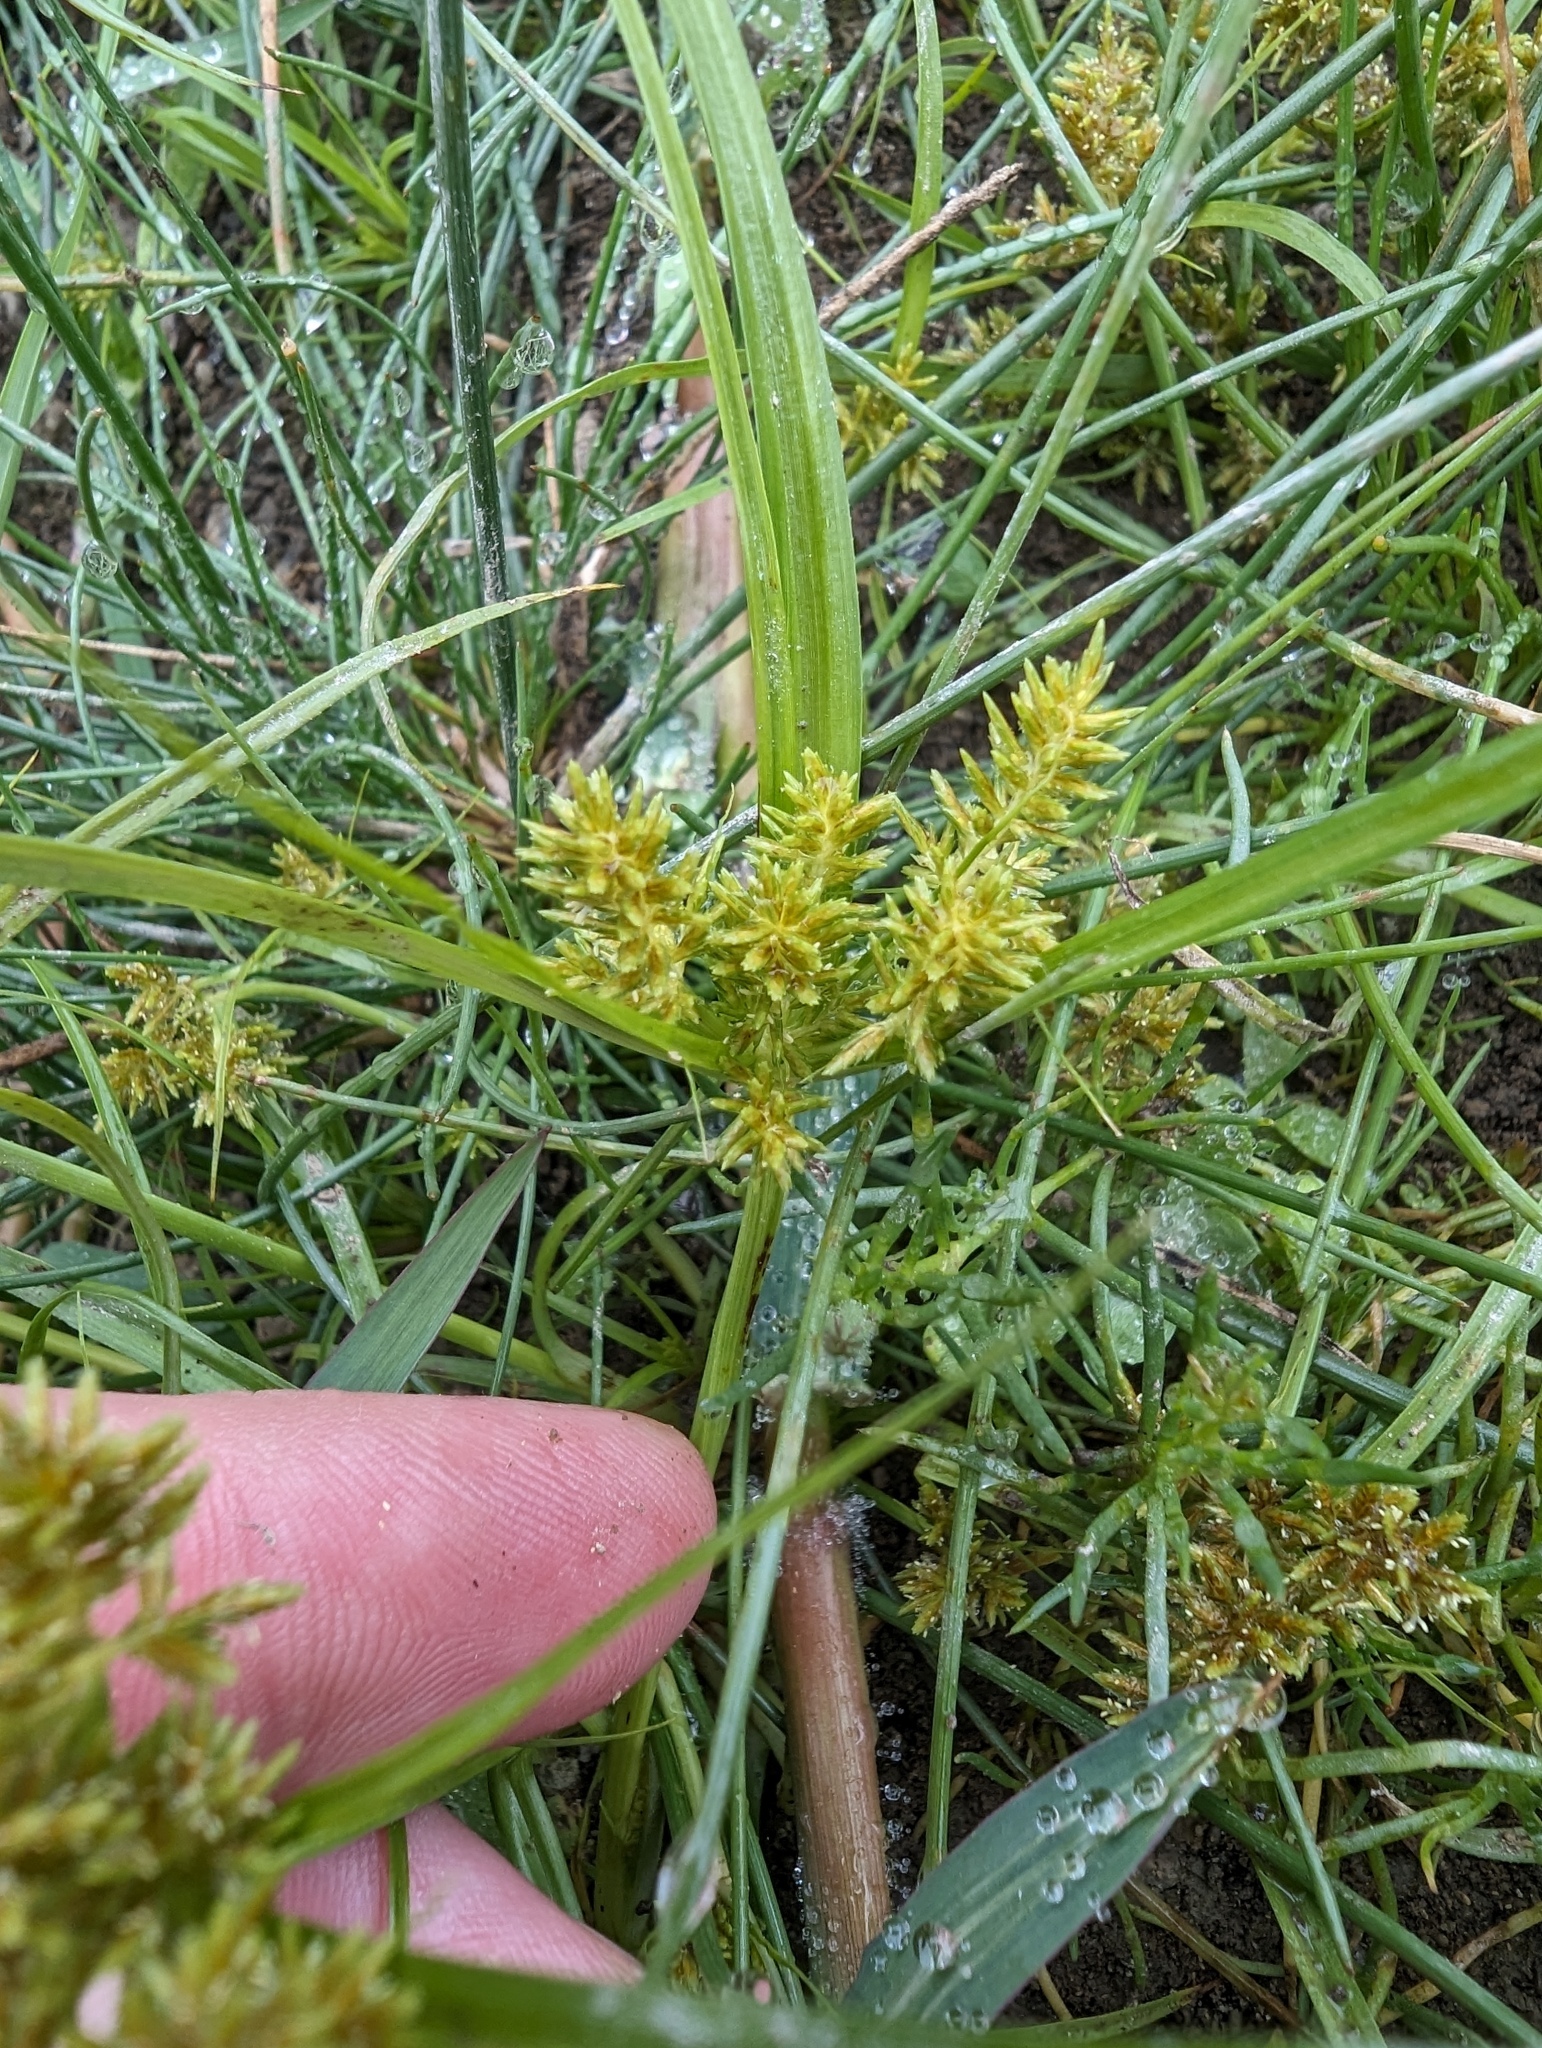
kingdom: Plantae
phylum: Tracheophyta
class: Liliopsida
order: Poales
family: Cyperaceae
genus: Cyperus
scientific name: Cyperus erythrorhizos
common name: Red-root flat sedge
